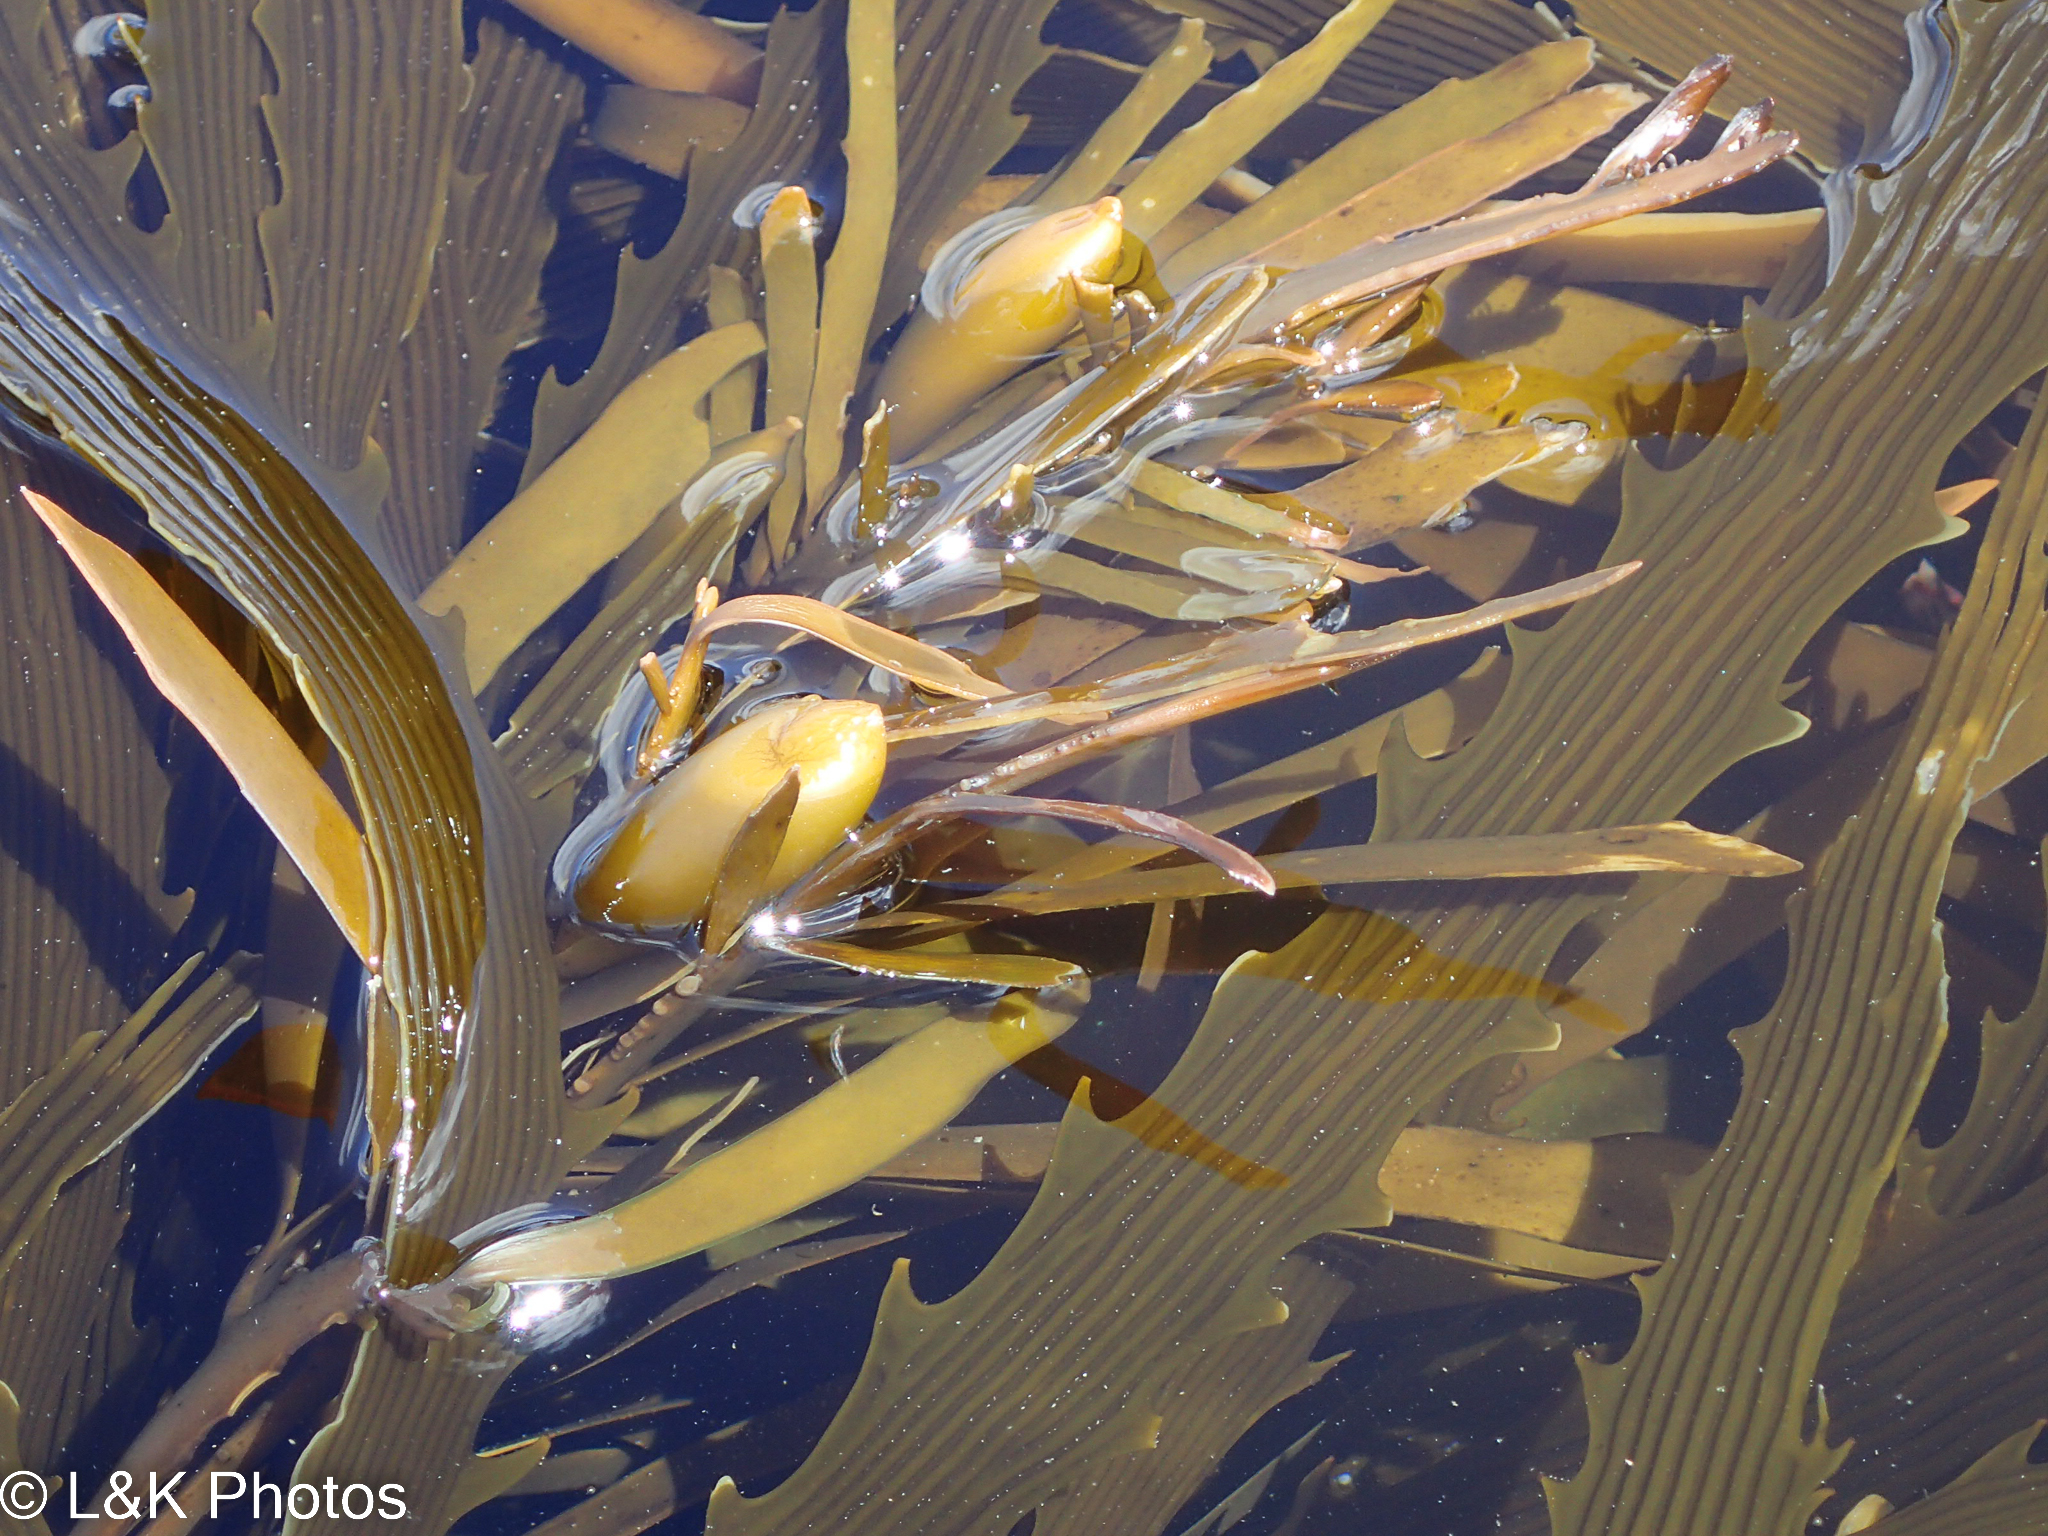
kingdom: Chromista
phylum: Ochrophyta
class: Phaeophyceae
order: Laminariales
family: Lessoniaceae
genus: Lessonia
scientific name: Lessonia corrugata
